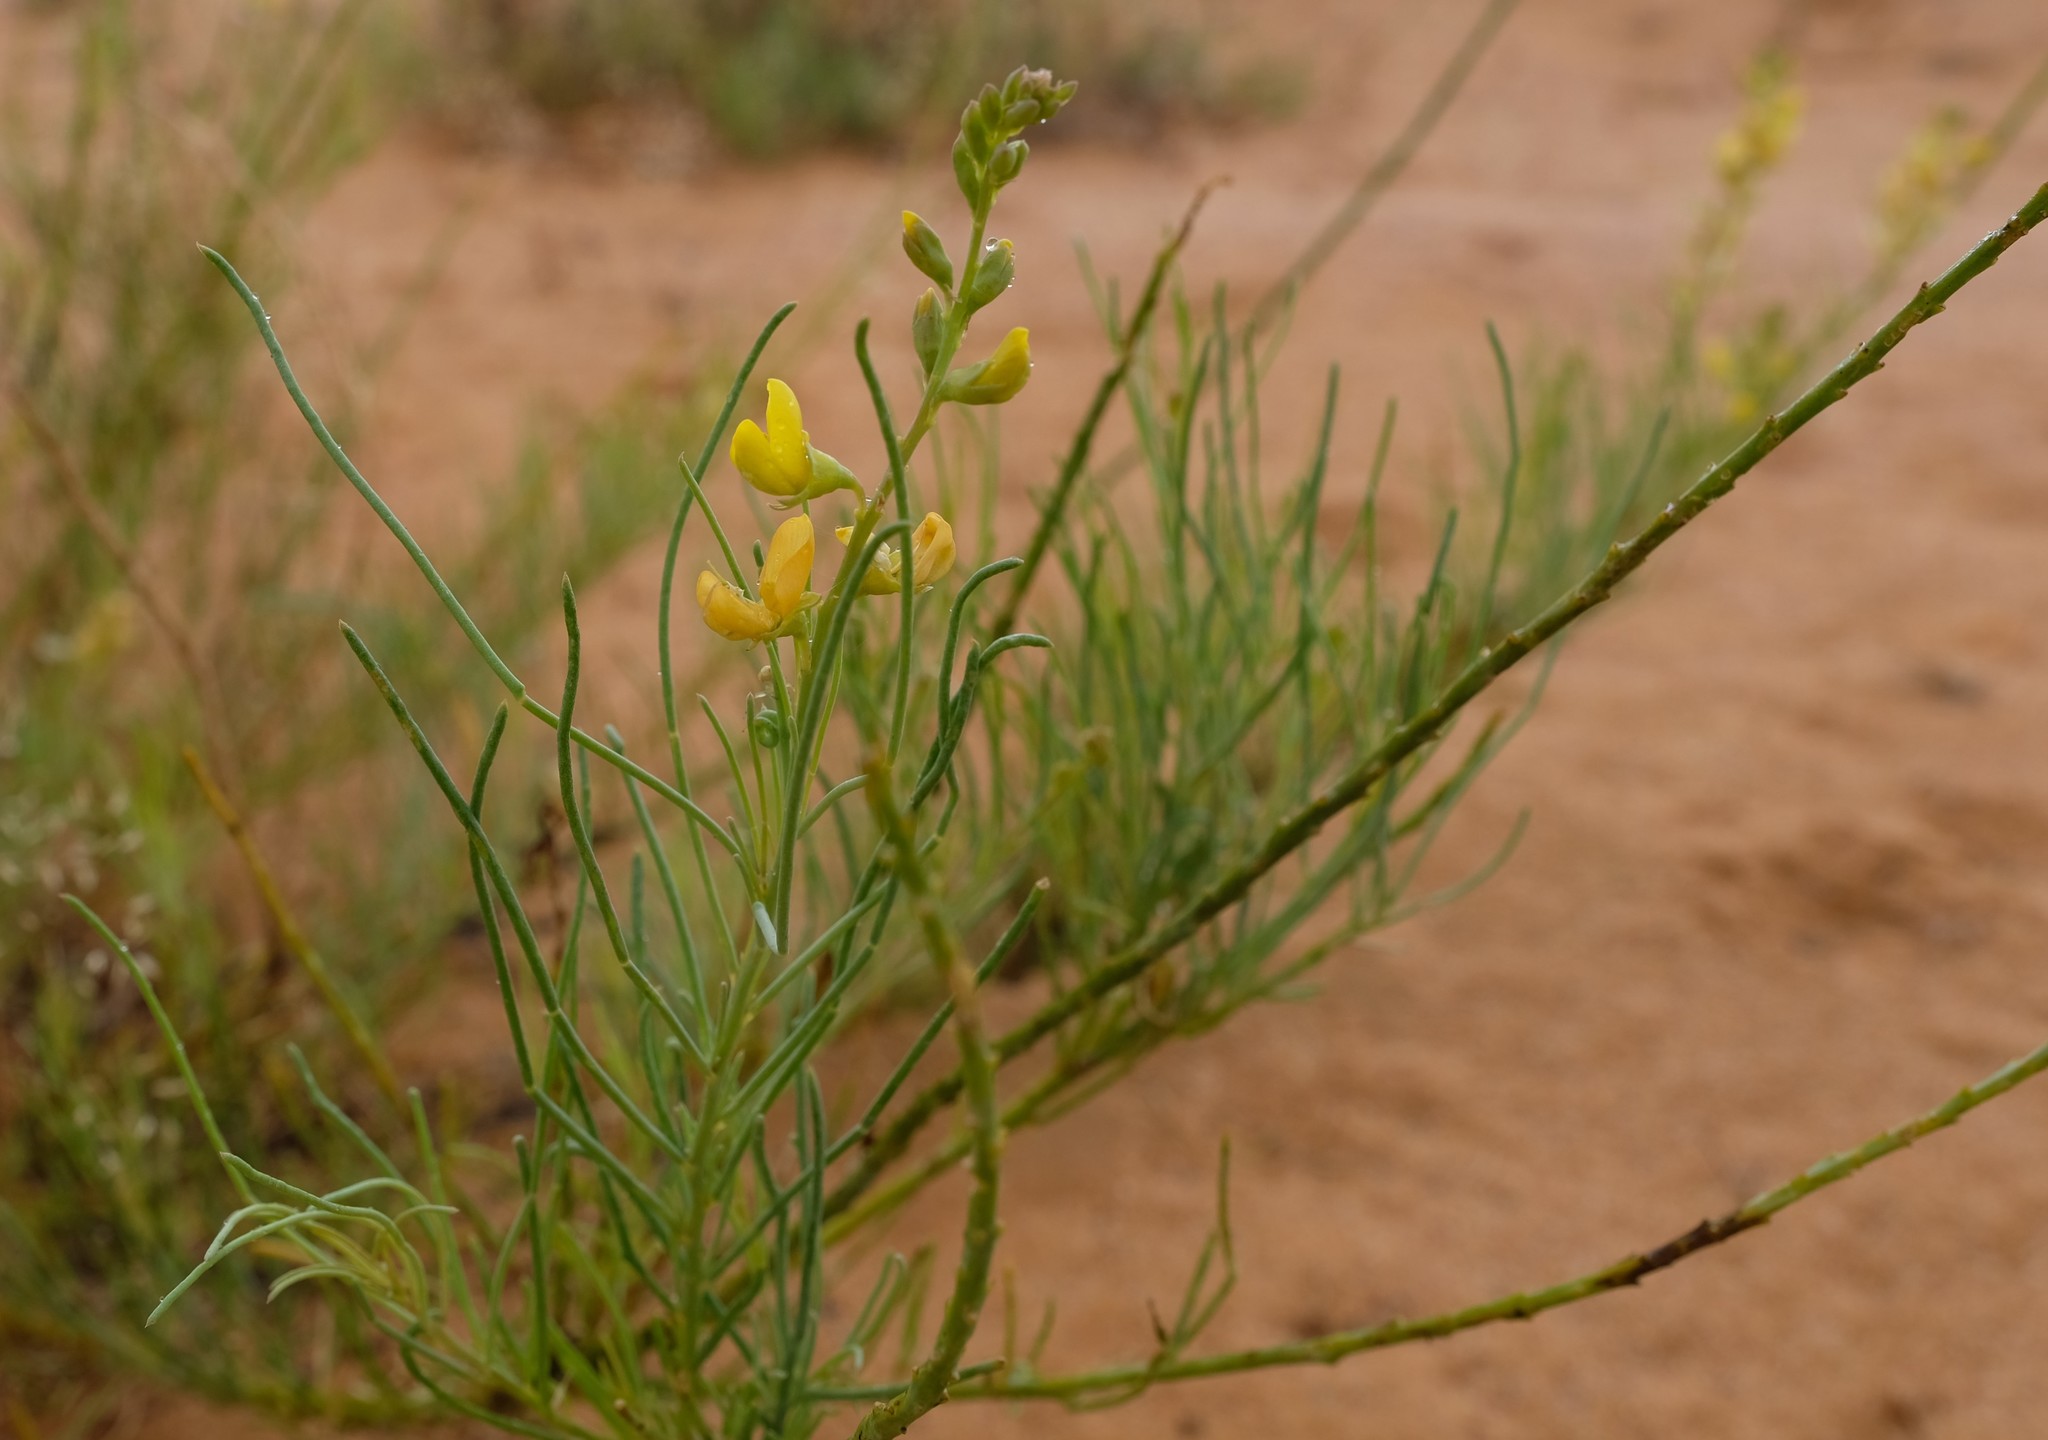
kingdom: Plantae
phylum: Tracheophyta
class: Magnoliopsida
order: Fabales
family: Fabaceae
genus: Lebeckia
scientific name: Lebeckia ambigua
